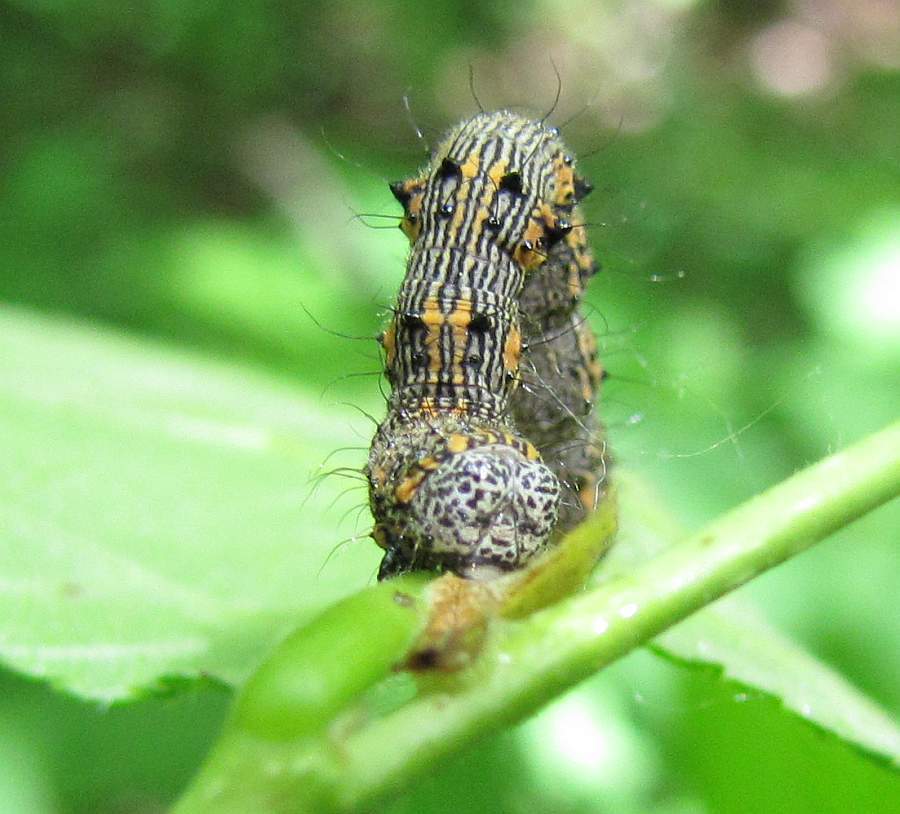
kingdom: Animalia
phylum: Arthropoda
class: Insecta
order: Lepidoptera
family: Geometridae
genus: Phigalia
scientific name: Phigalia titea
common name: Spiny looper
